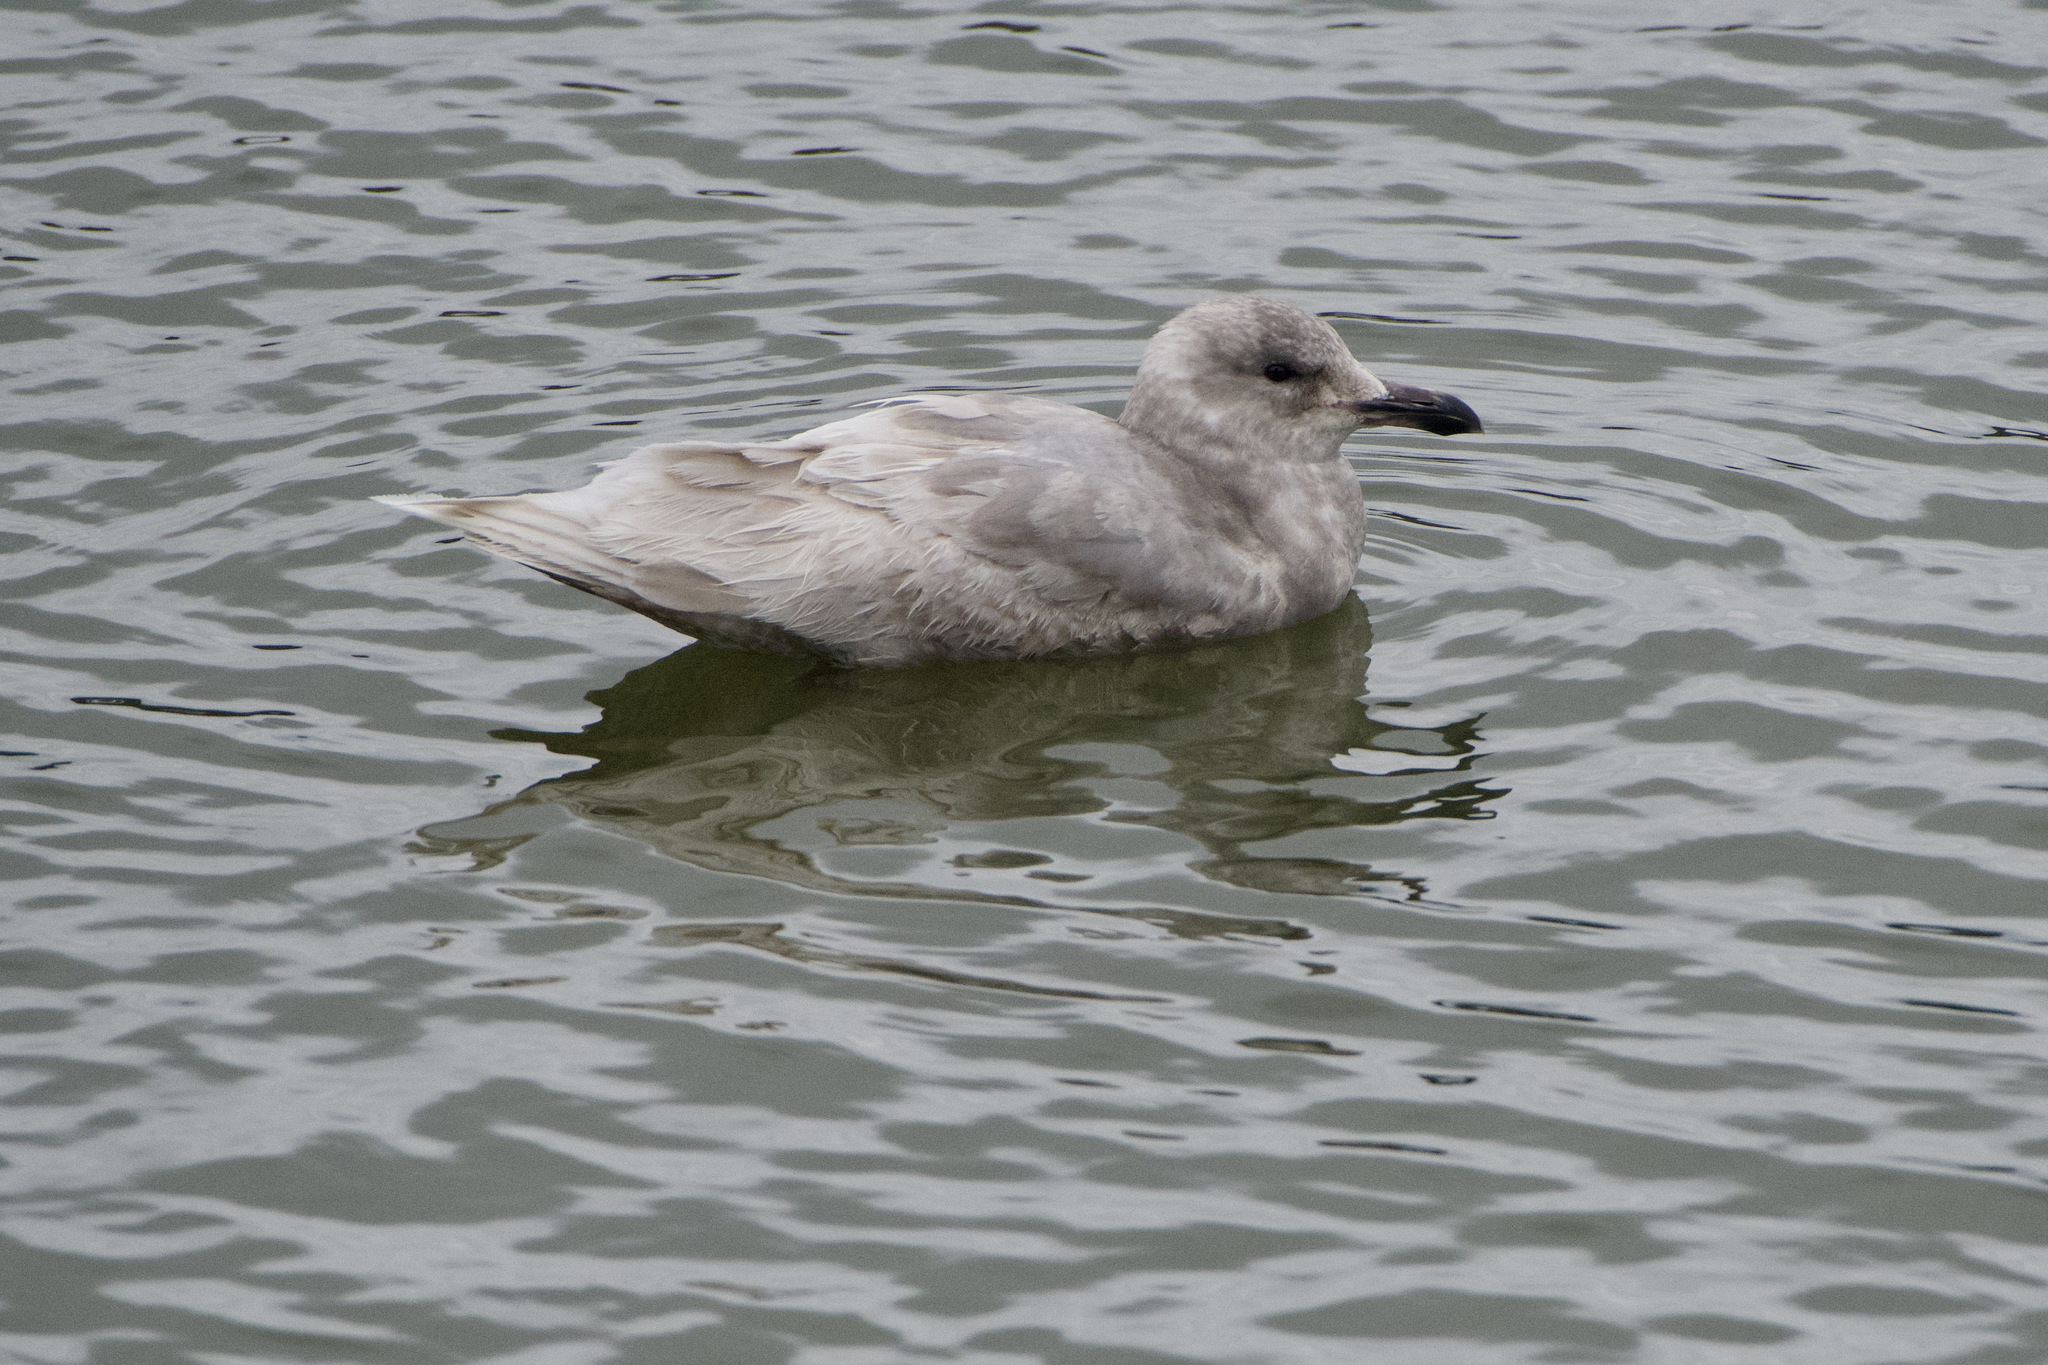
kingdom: Animalia
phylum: Chordata
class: Aves
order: Charadriiformes
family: Laridae
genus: Larus
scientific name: Larus glaucescens
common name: Glaucous-winged gull
